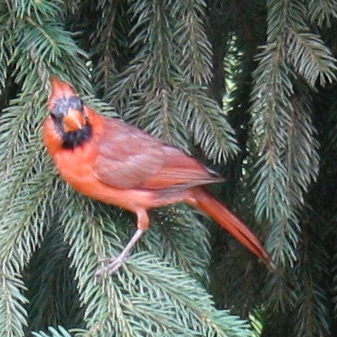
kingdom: Animalia
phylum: Chordata
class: Aves
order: Passeriformes
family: Cardinalidae
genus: Cardinalis
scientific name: Cardinalis cardinalis
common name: Northern cardinal
